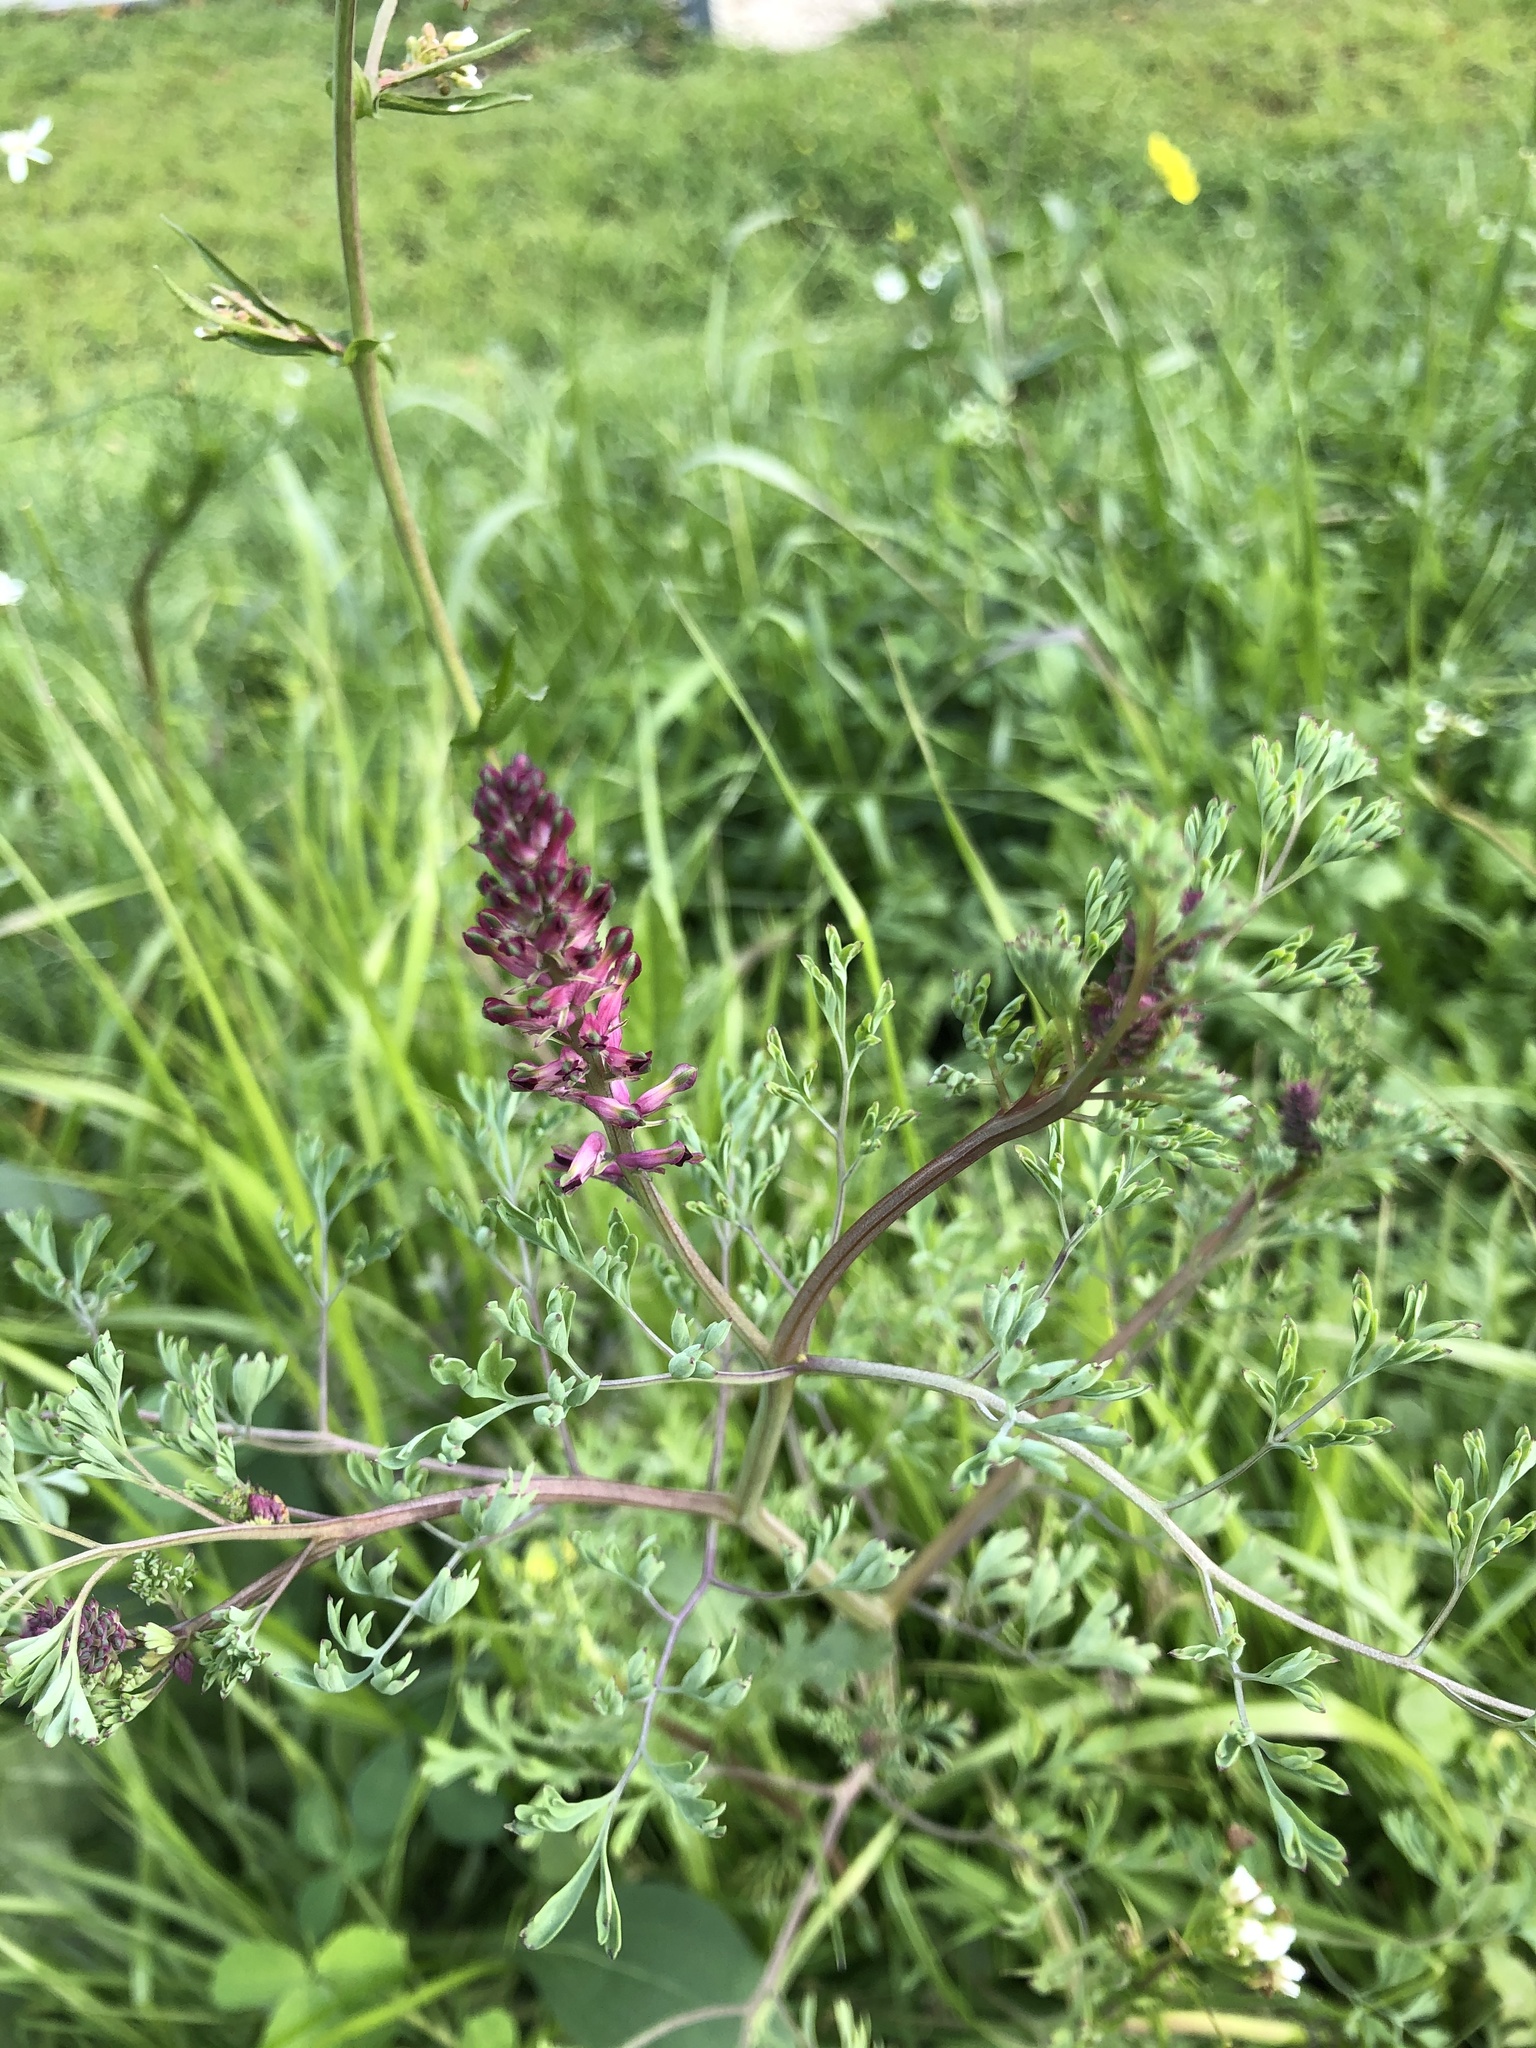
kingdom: Plantae
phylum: Tracheophyta
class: Magnoliopsida
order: Ranunculales
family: Papaveraceae
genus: Fumaria
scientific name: Fumaria officinalis
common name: Common fumitory
